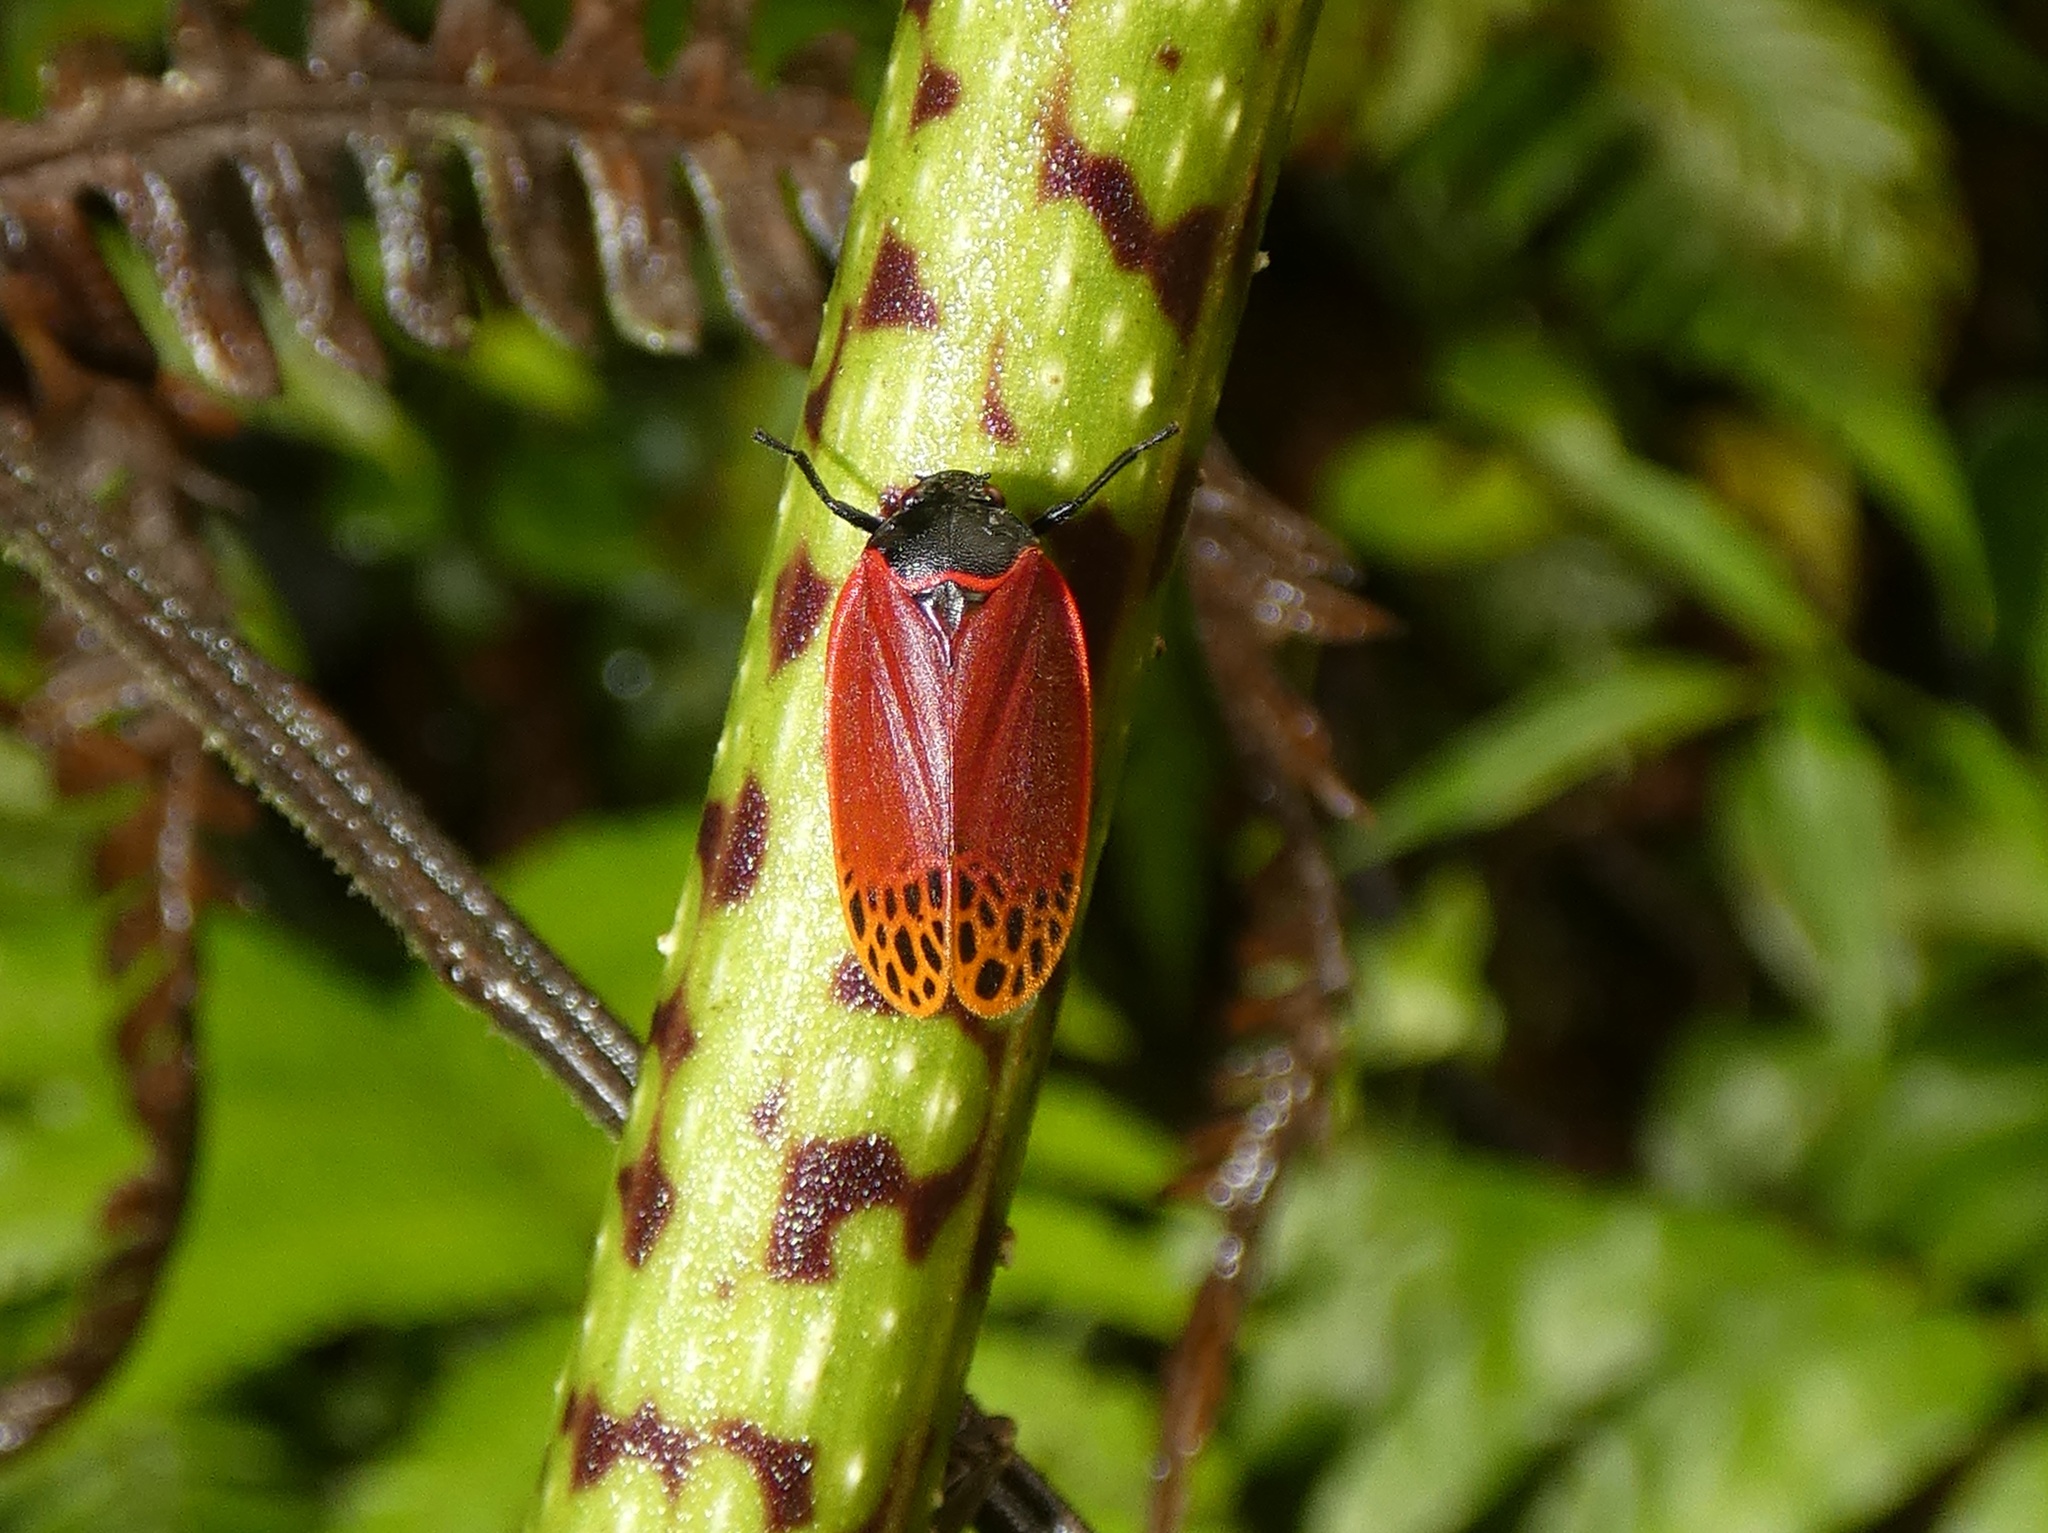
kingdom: Animalia
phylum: Arthropoda
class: Insecta
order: Hemiptera
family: Cercopidae
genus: Tomaspis
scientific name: Tomaspis biolleyi
